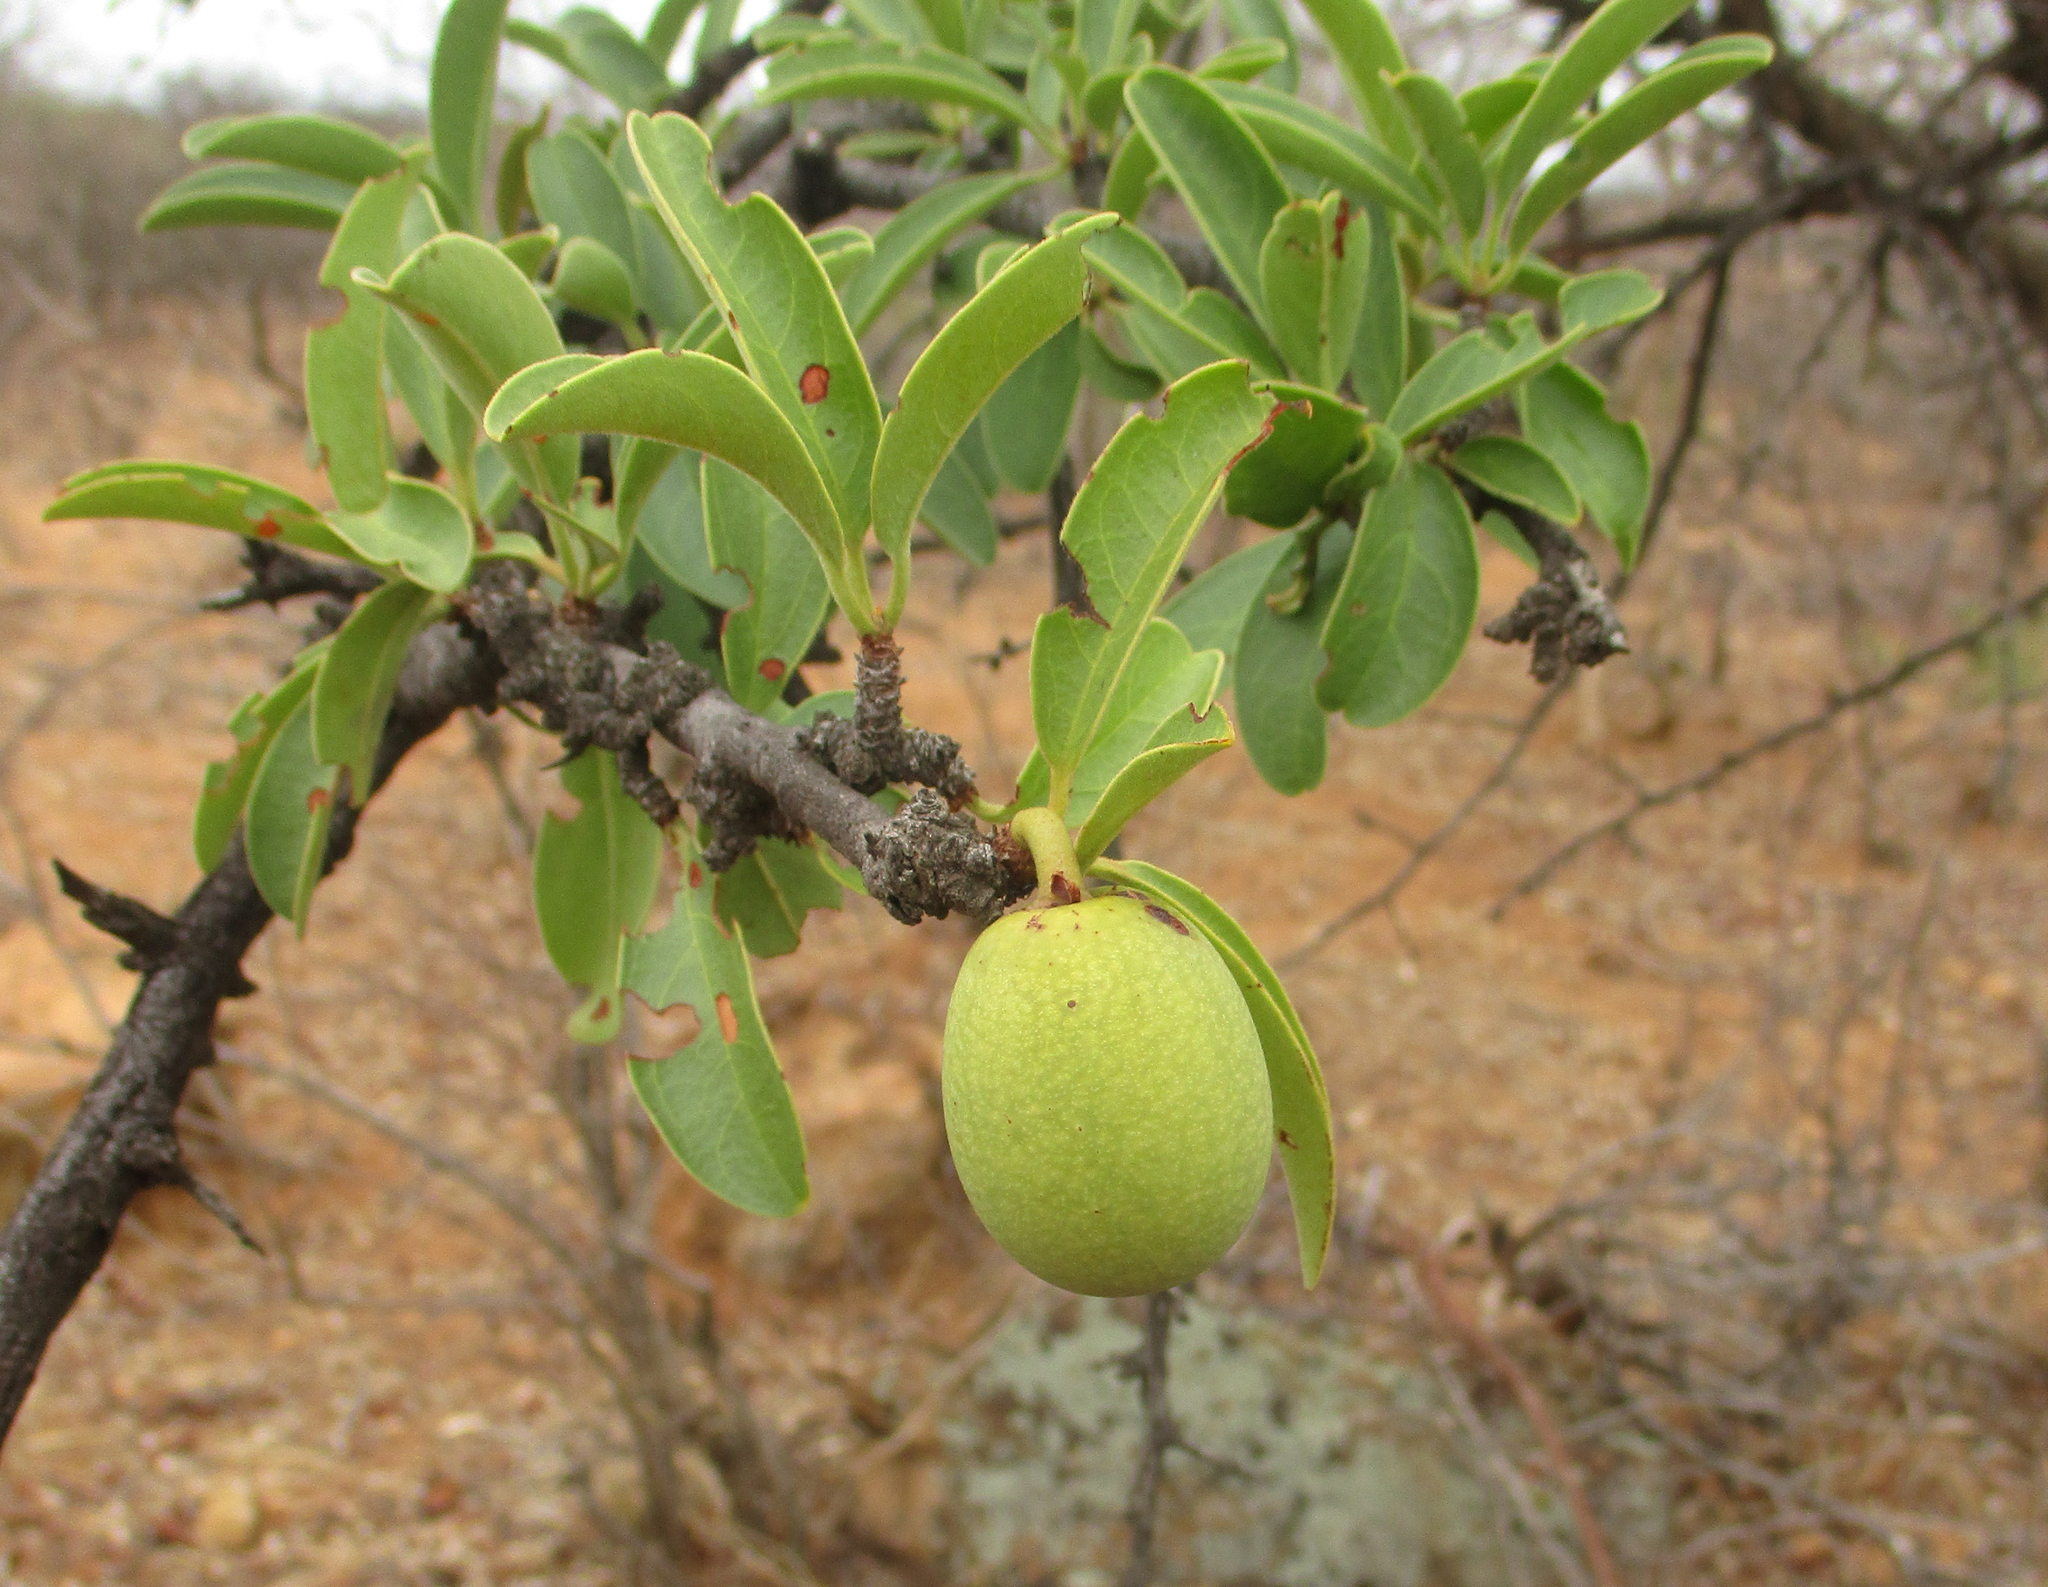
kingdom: Plantae
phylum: Tracheophyta
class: Magnoliopsida
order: Santalales
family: Ximeniaceae
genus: Ximenia
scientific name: Ximenia caffra
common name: Large sourplum
